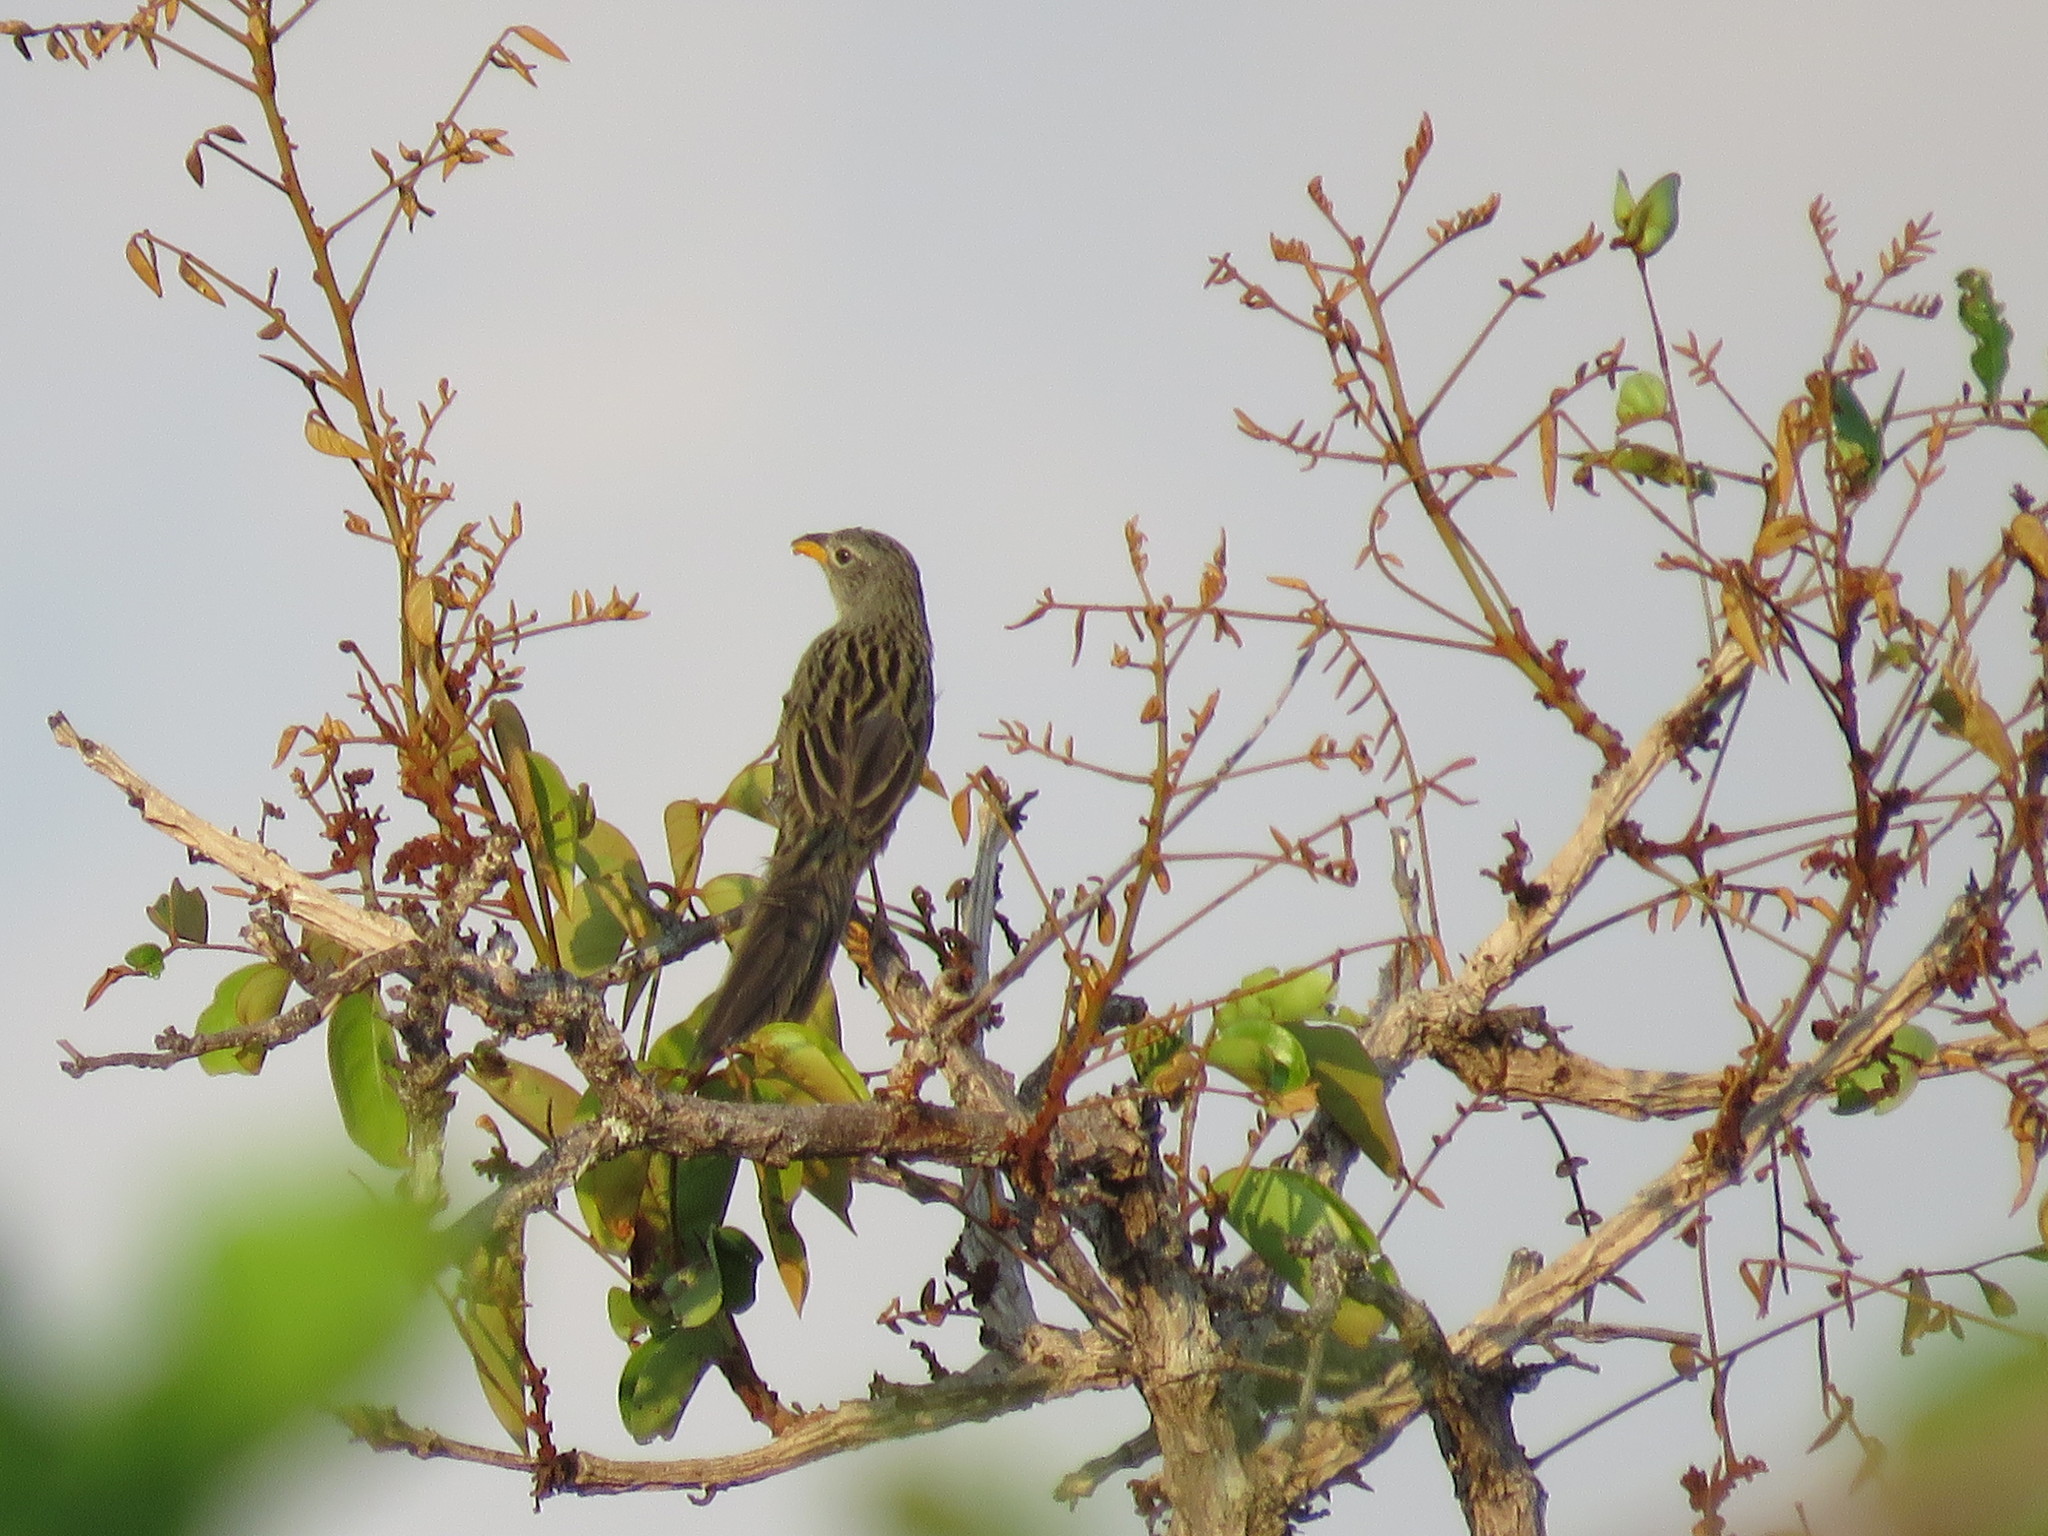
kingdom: Animalia
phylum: Chordata
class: Aves
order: Passeriformes
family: Thraupidae
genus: Emberizoides
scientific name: Emberizoides herbicola
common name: Wedge-tailed grass-finch
